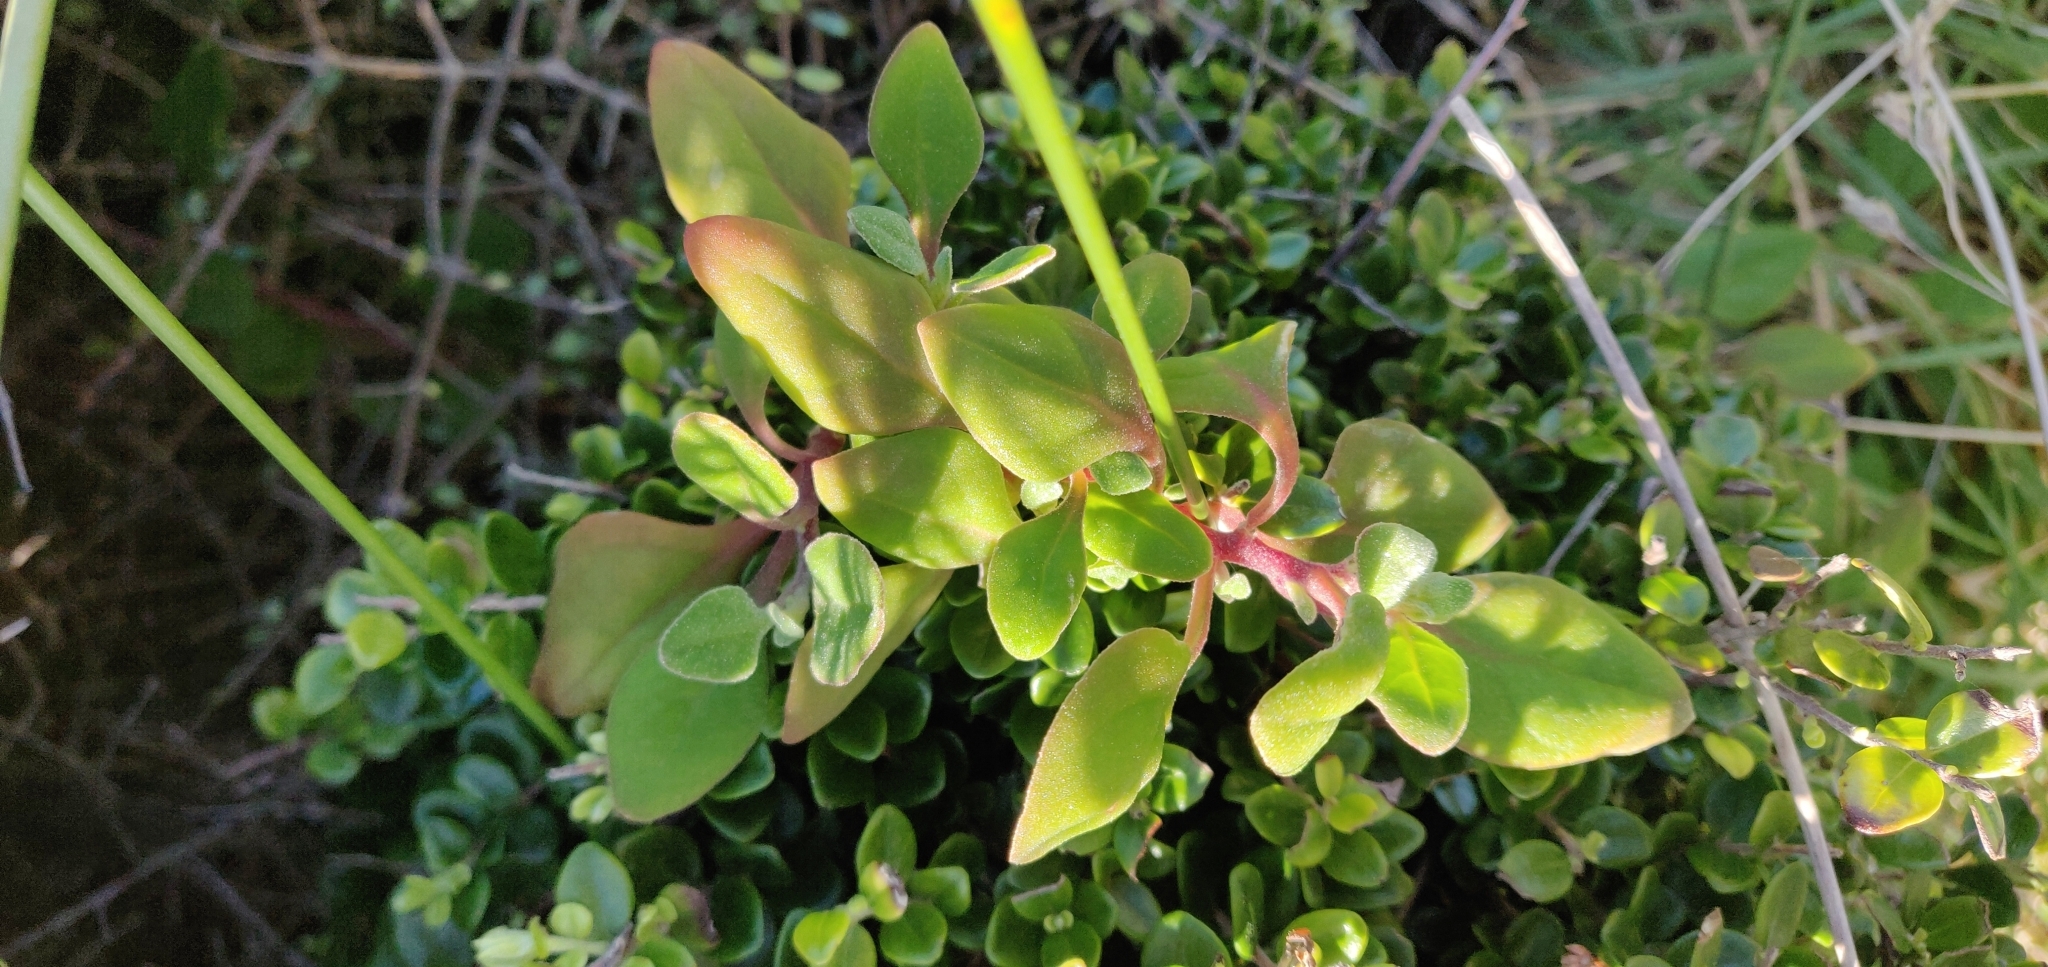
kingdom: Plantae
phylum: Tracheophyta
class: Magnoliopsida
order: Caryophyllales
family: Aizoaceae
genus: Tetragonia
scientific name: Tetragonia implexicoma
